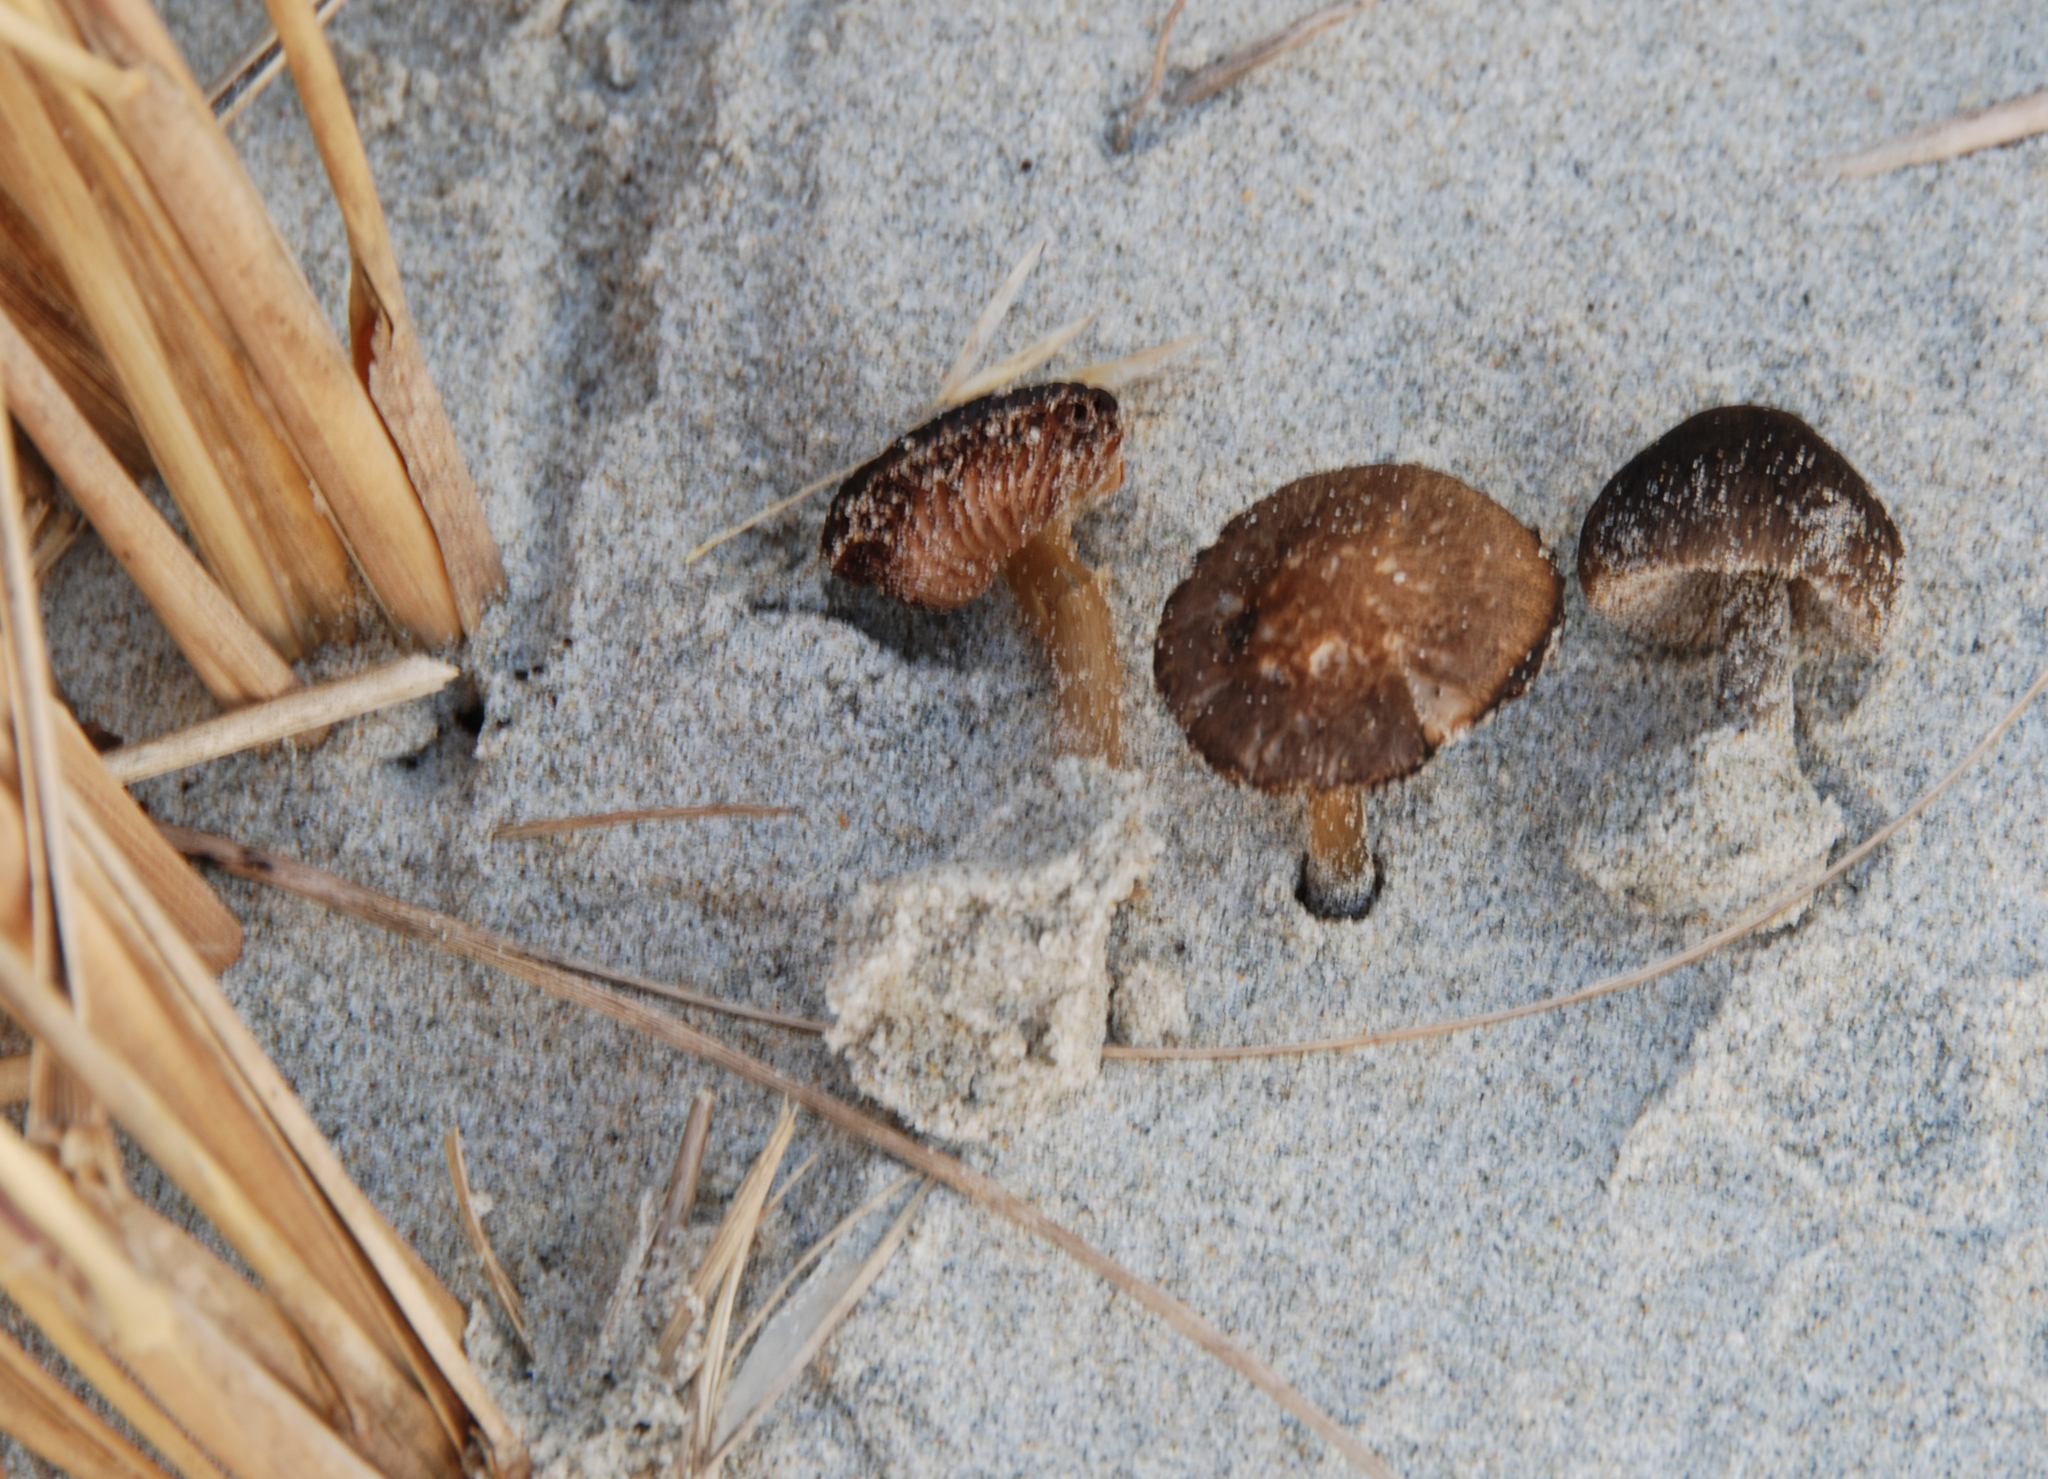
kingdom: Fungi
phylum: Basidiomycota
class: Agaricomycetes
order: Agaricales
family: Pluteaceae
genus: Pluteus
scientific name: Pluteus nanus
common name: Dwarf shield
